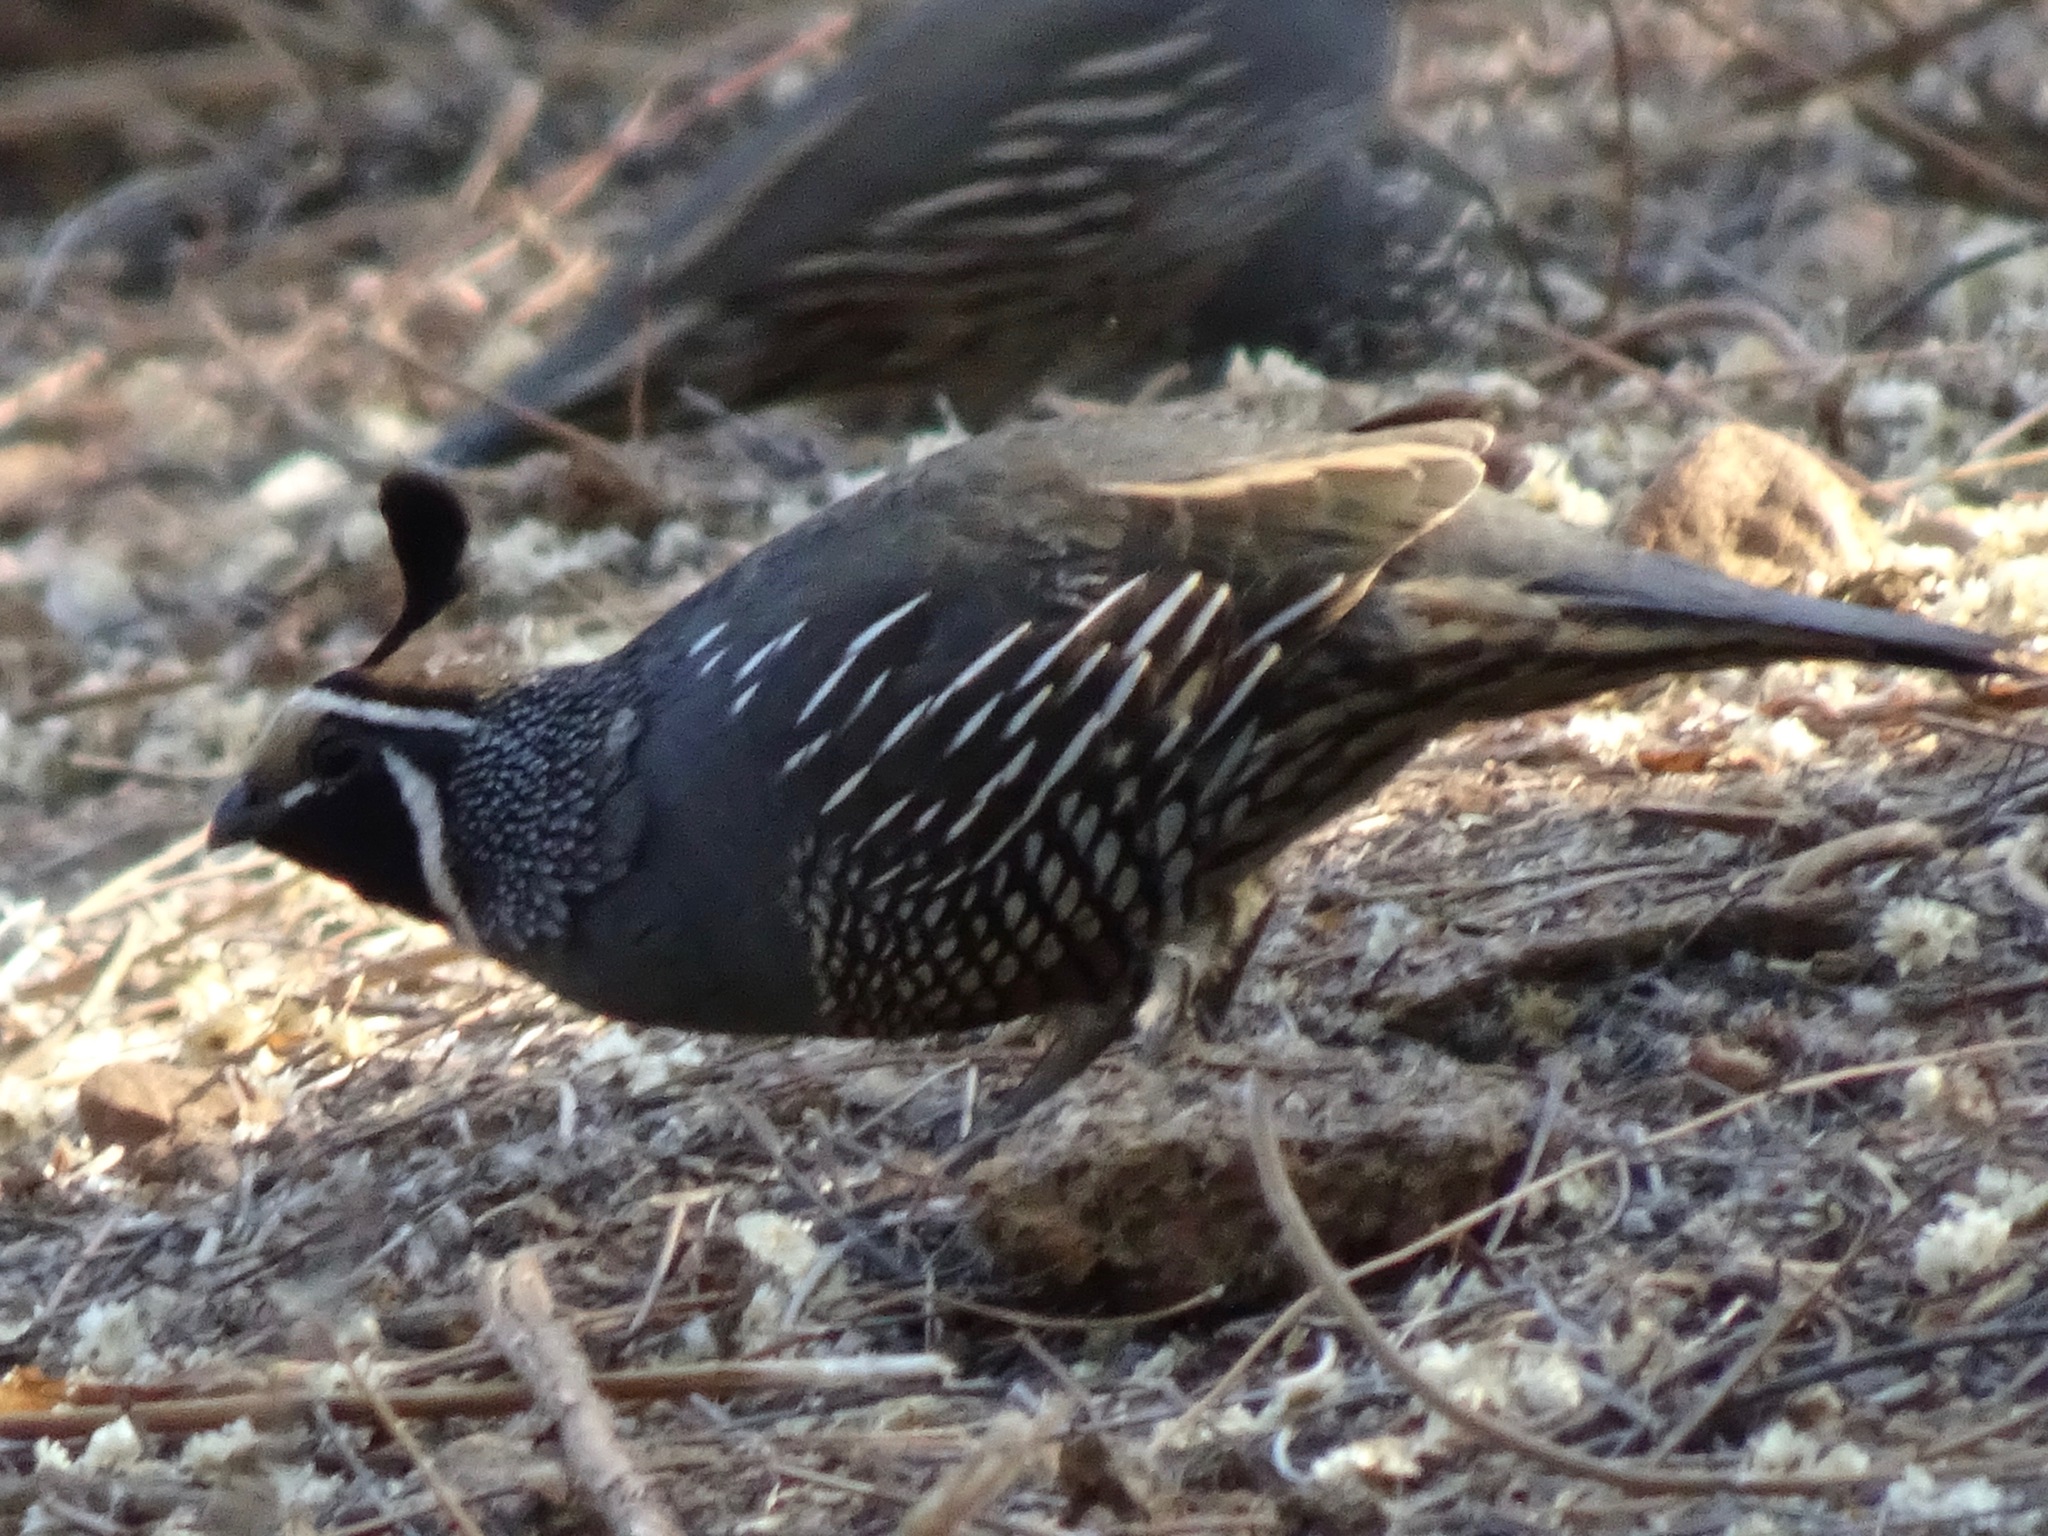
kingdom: Animalia
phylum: Chordata
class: Aves
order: Galliformes
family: Odontophoridae
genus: Callipepla
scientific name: Callipepla californica
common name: California quail
